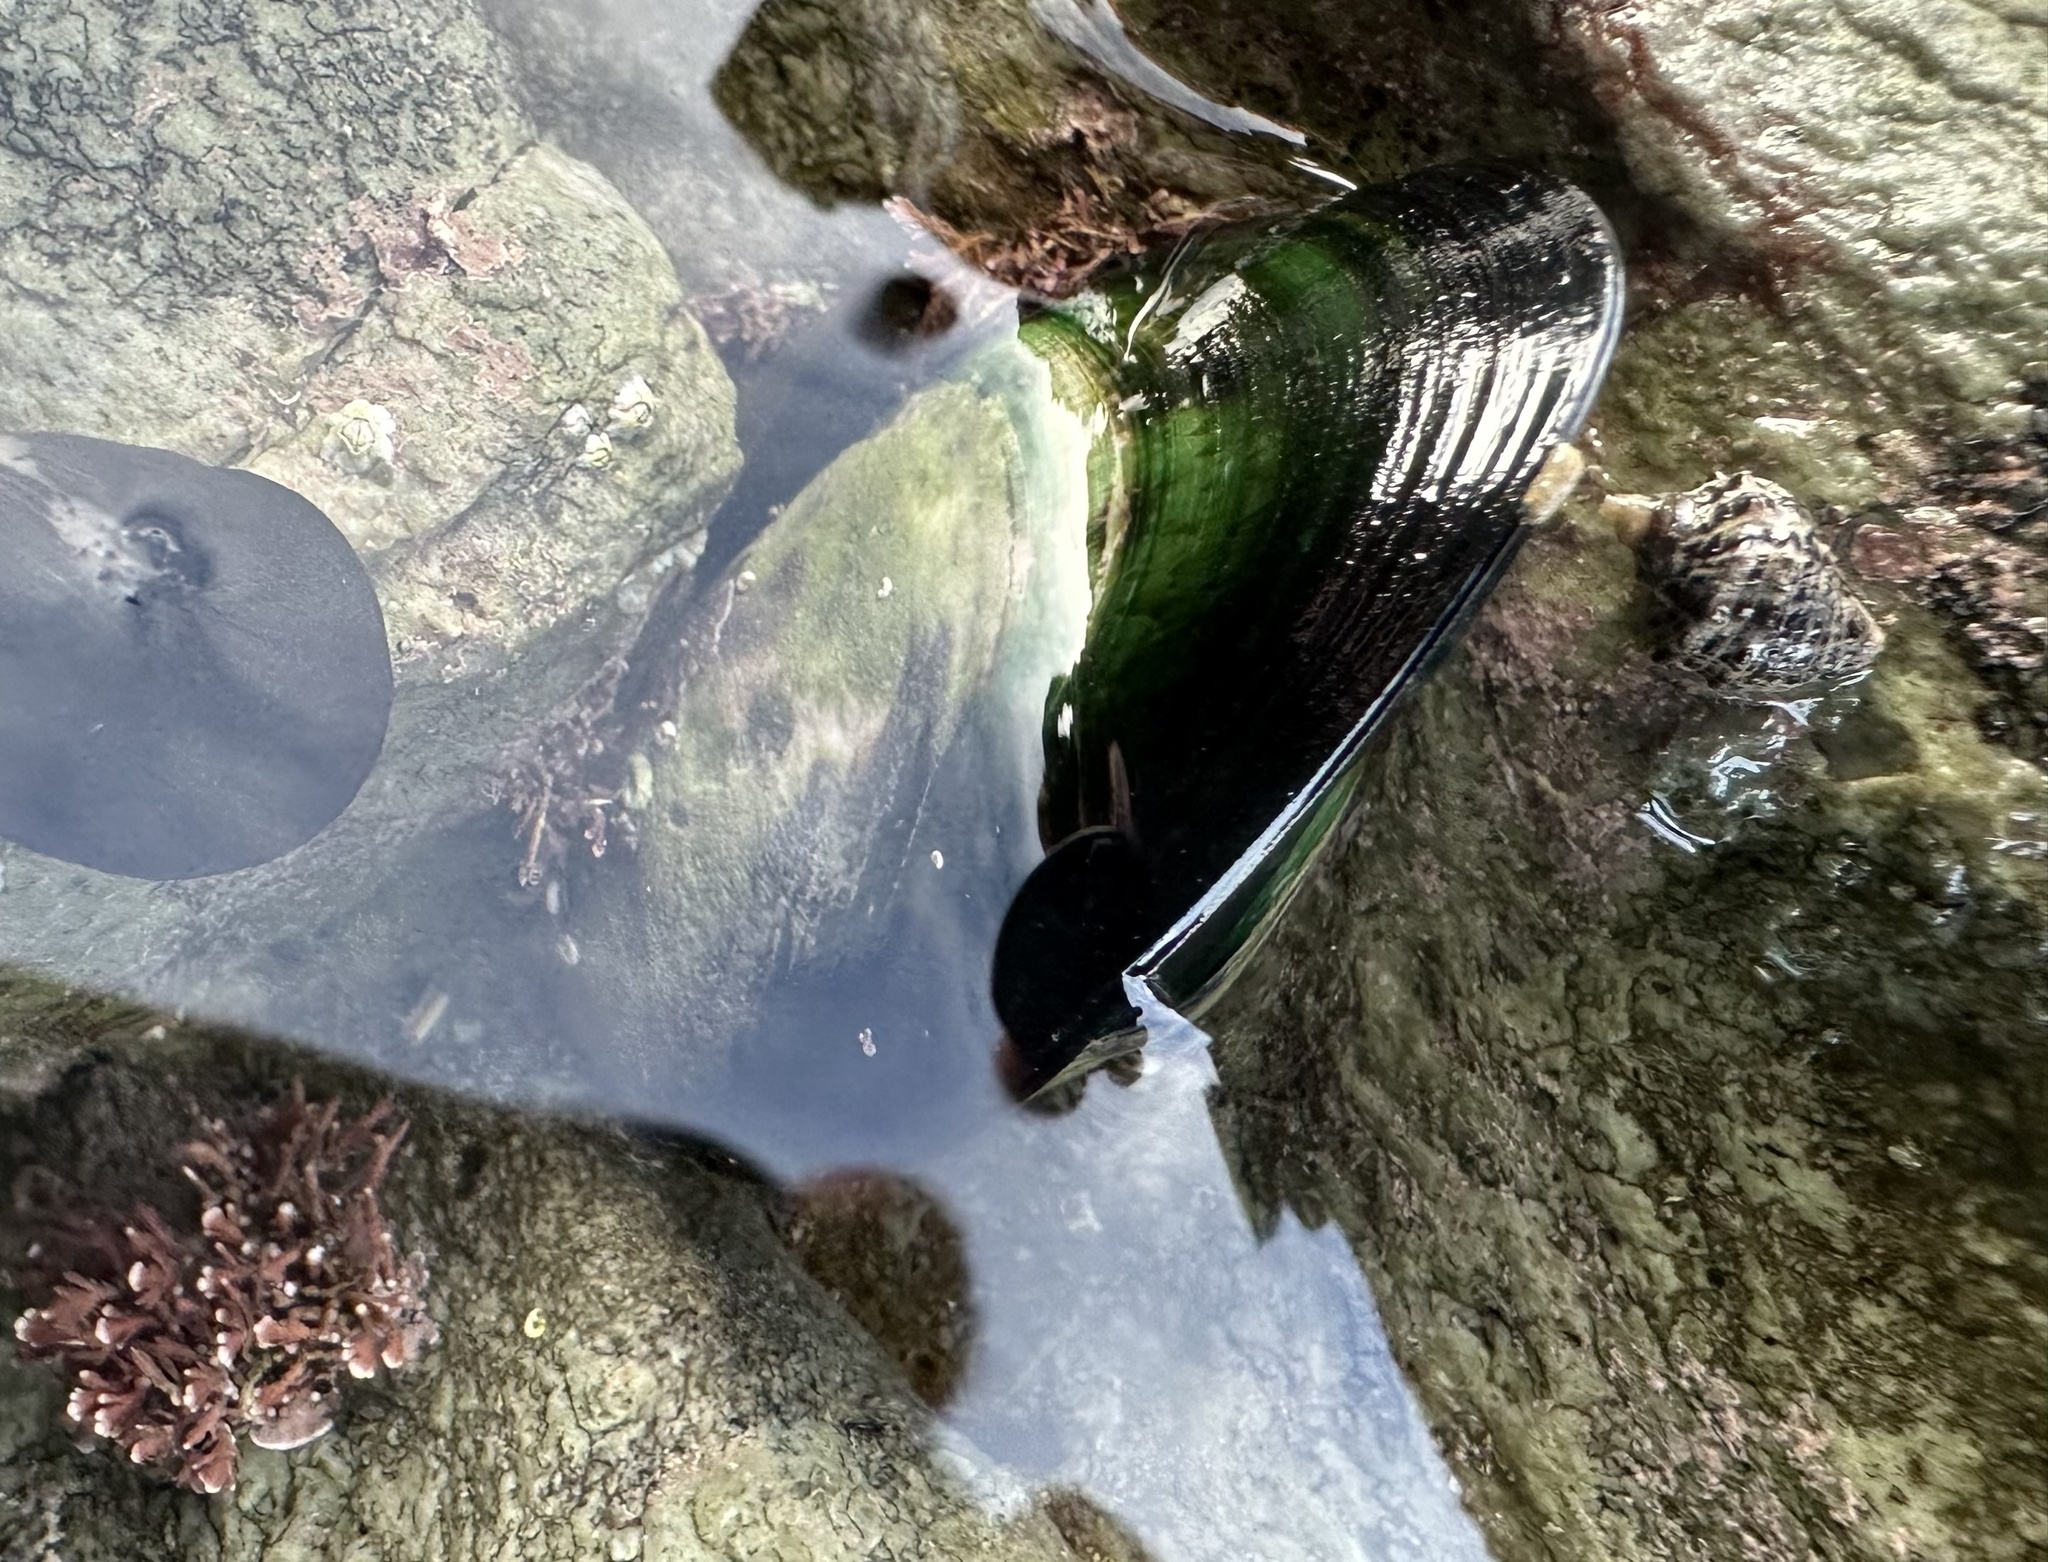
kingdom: Animalia
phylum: Mollusca
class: Bivalvia
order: Mytilida
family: Mytilidae
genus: Perna
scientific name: Perna canaliculus
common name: New zealand greenshelltm
